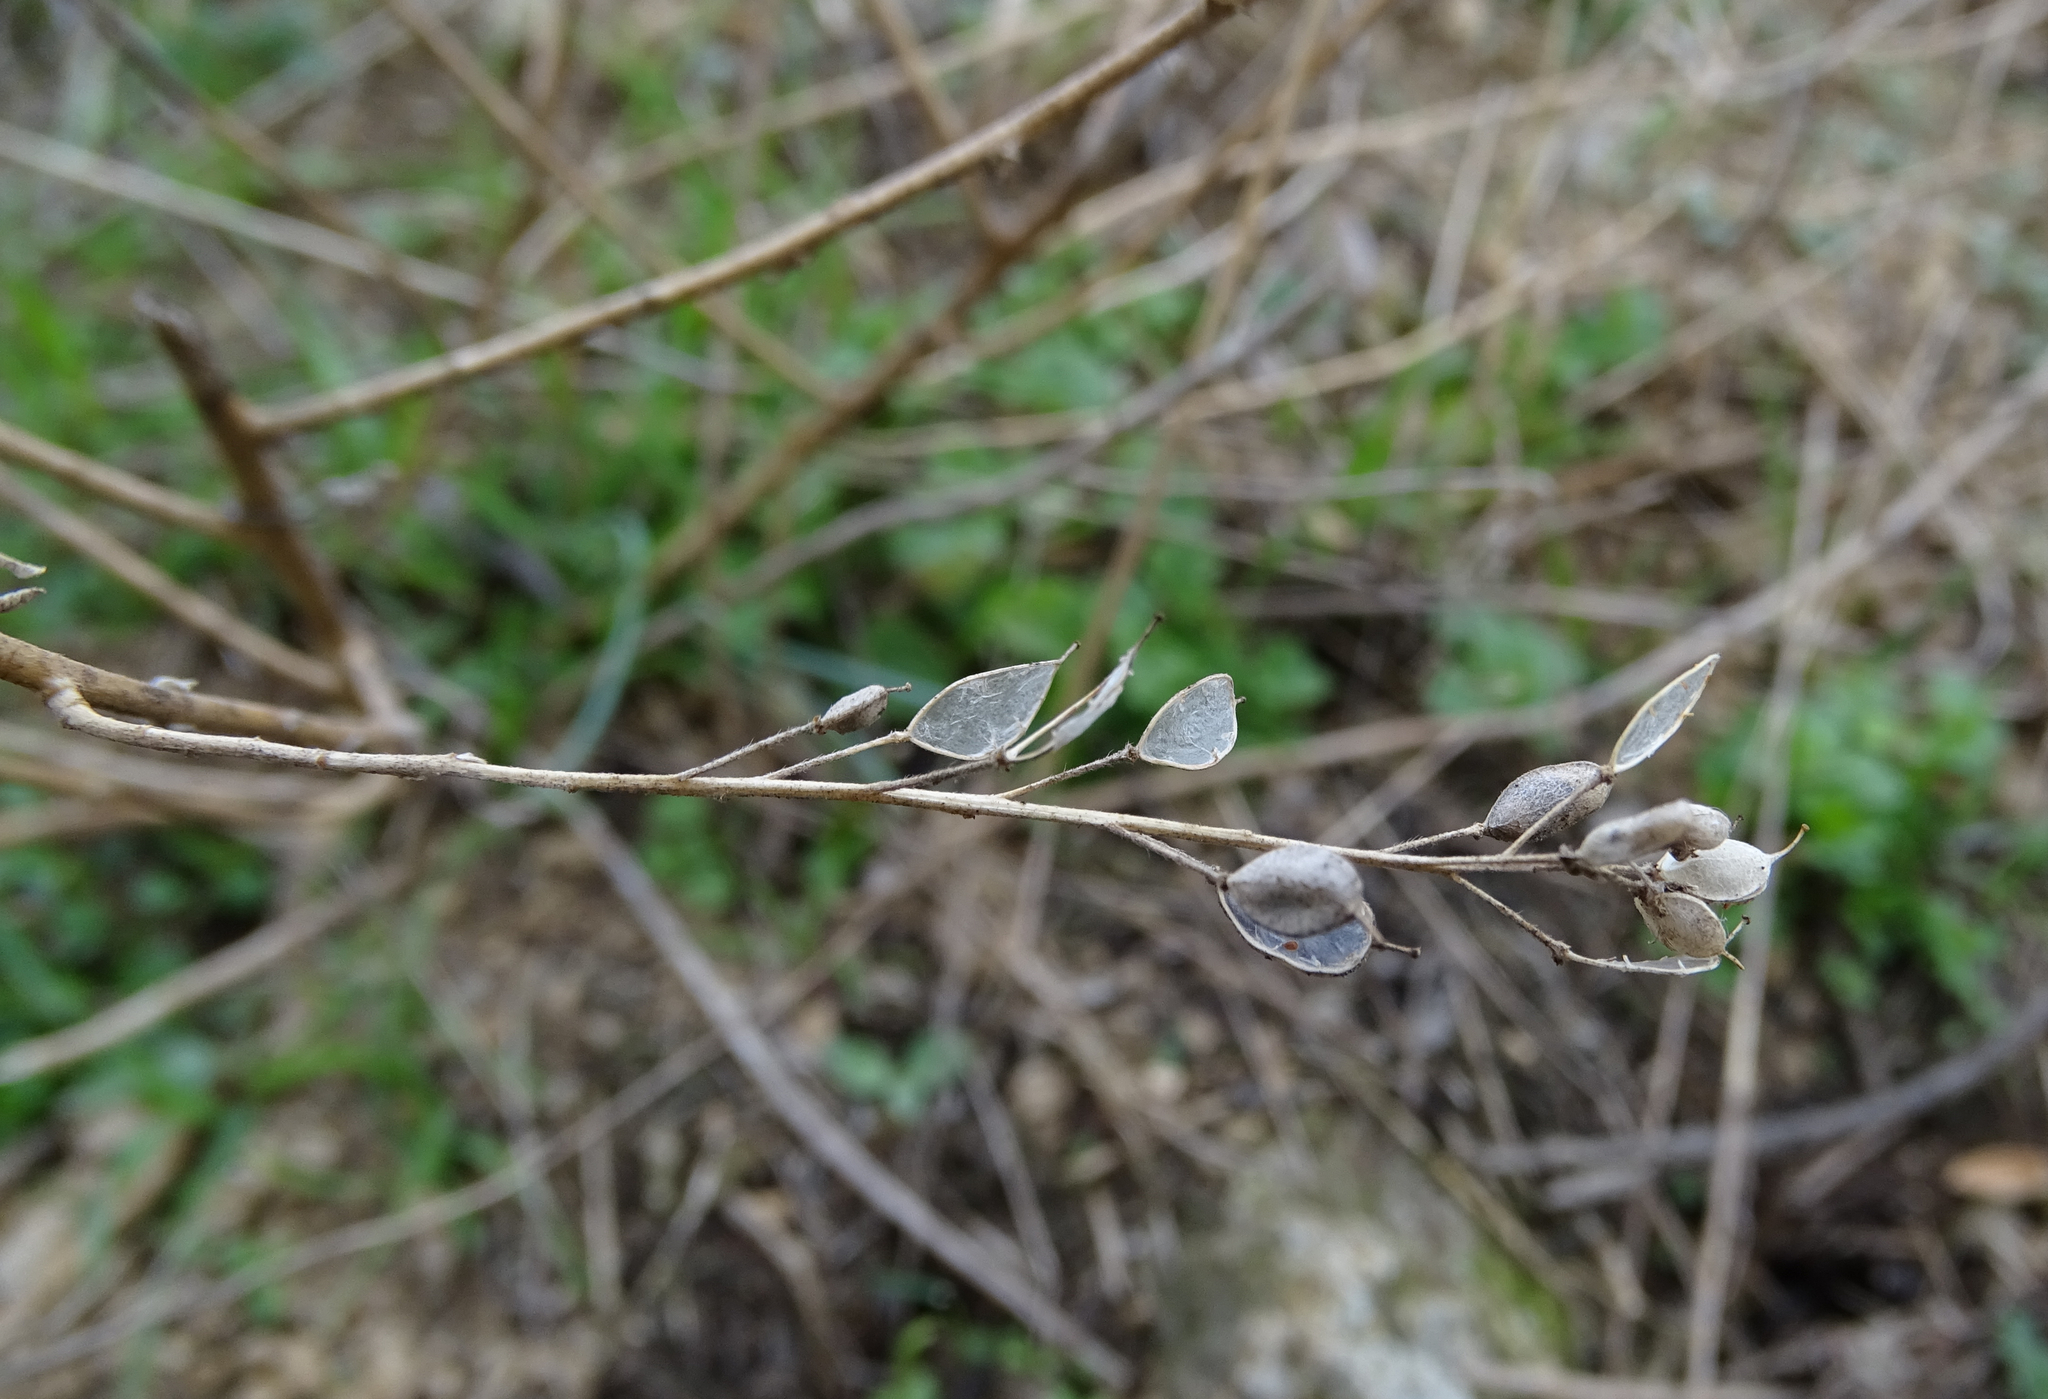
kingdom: Plantae
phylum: Tracheophyta
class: Magnoliopsida
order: Brassicales
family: Brassicaceae
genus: Berteroa
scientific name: Berteroa incana
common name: Hoary alison
